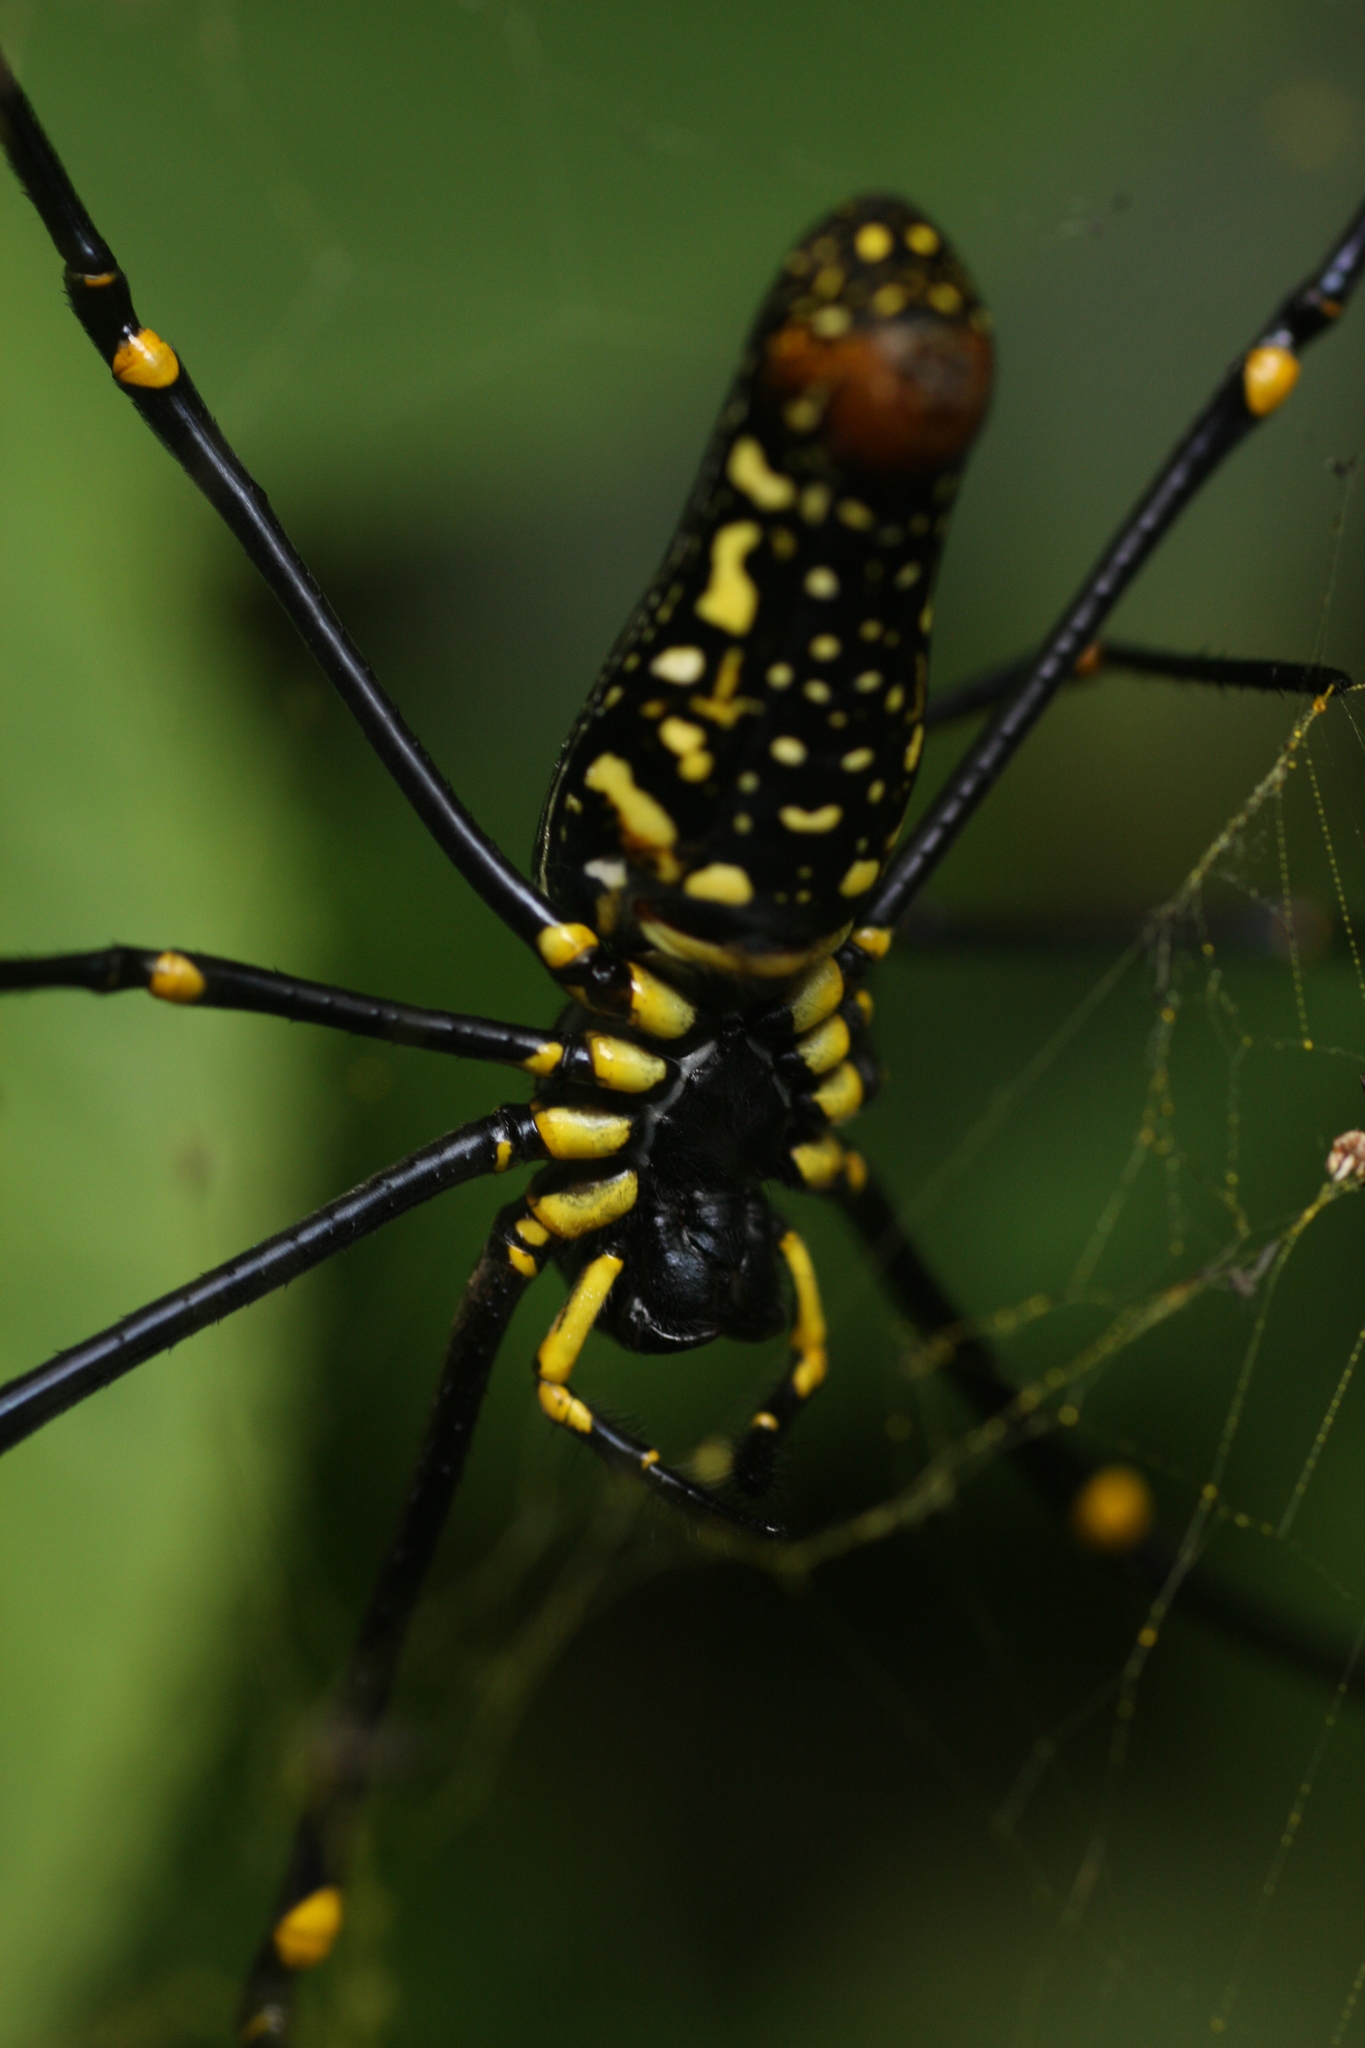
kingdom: Animalia
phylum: Arthropoda
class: Arachnida
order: Araneae
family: Araneidae
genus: Nephila
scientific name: Nephila pilipes
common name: Giant golden orb weaver
